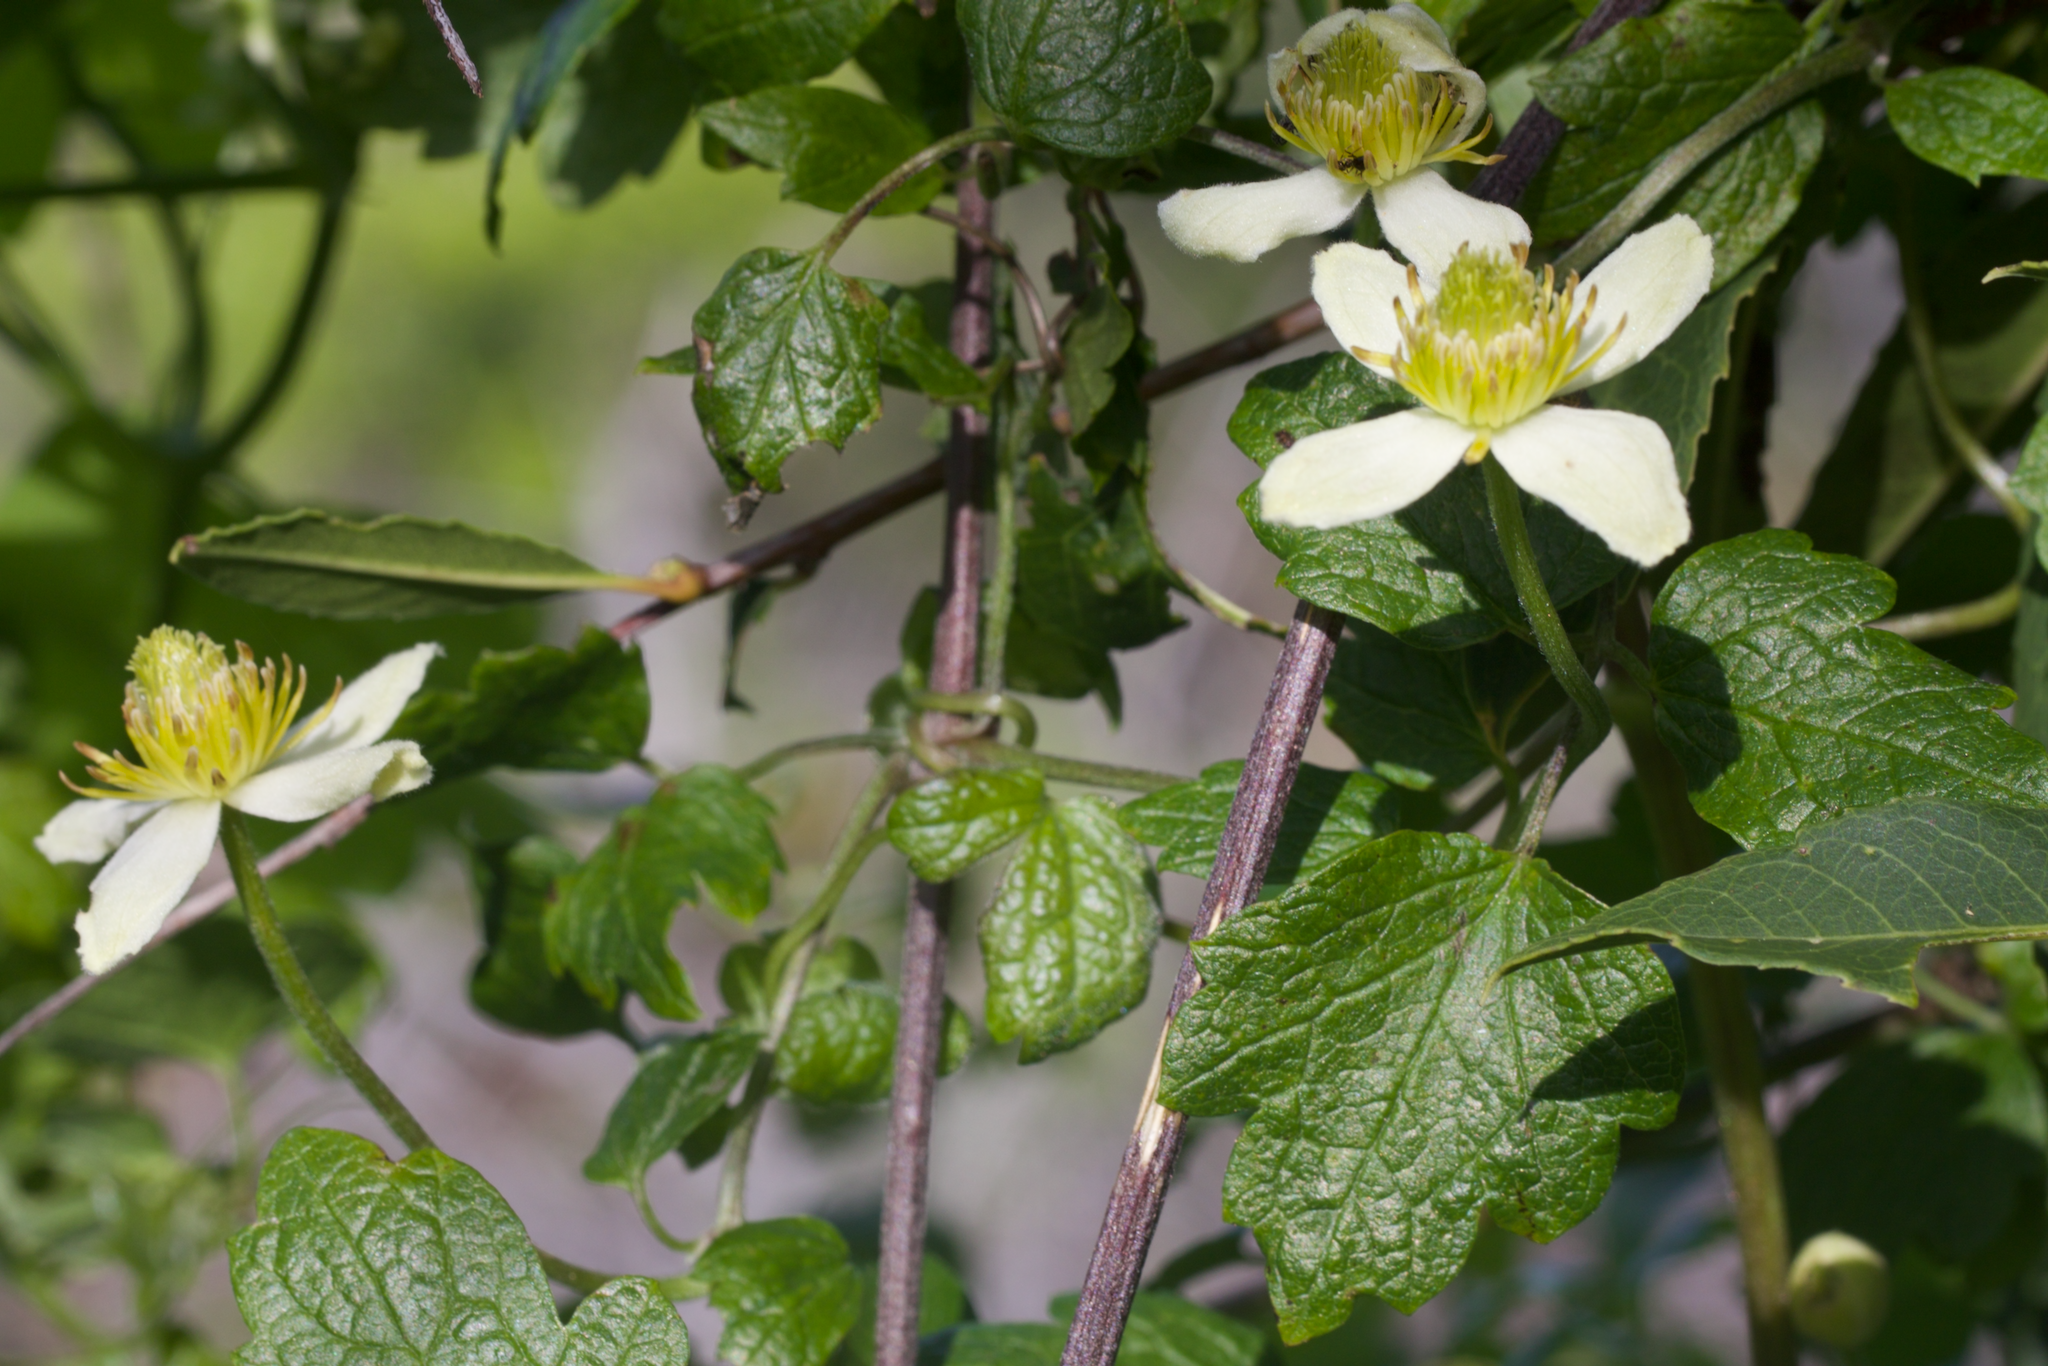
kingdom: Plantae
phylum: Tracheophyta
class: Magnoliopsida
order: Ranunculales
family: Ranunculaceae
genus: Clematis
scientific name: Clematis lasiantha
